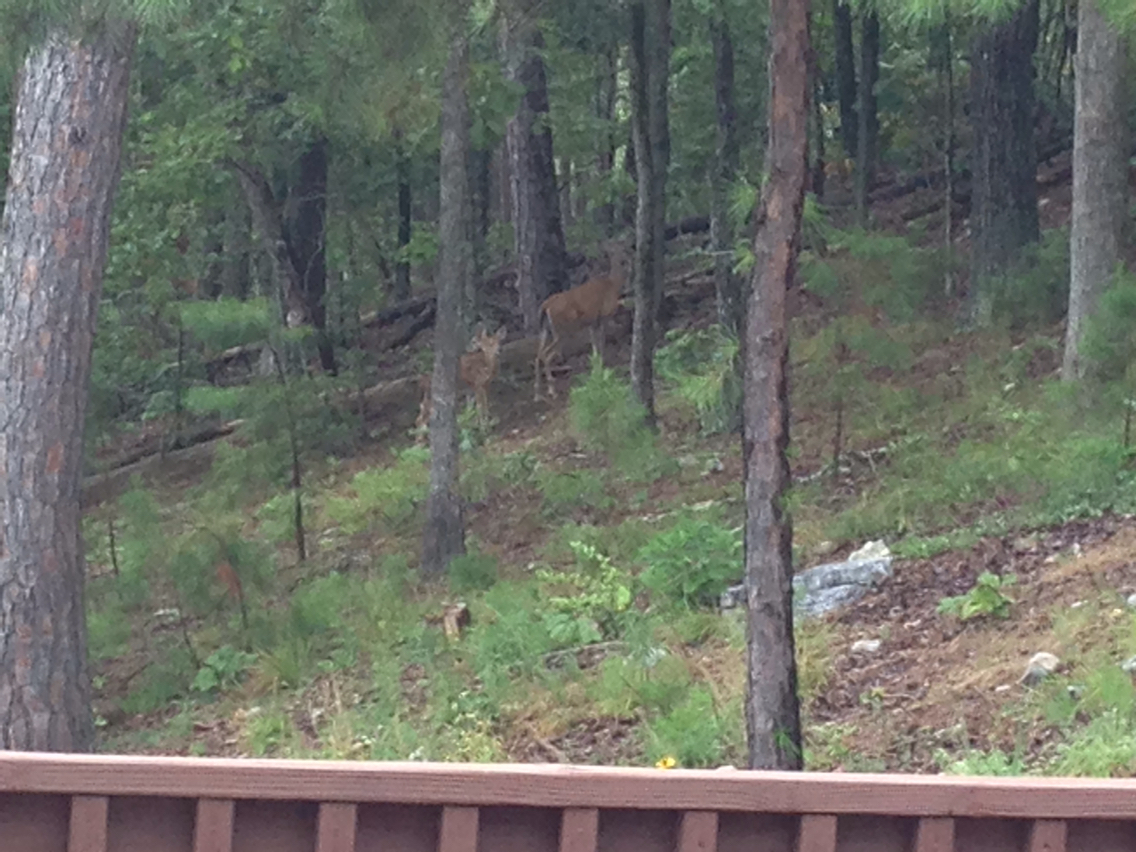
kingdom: Animalia
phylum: Chordata
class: Mammalia
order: Artiodactyla
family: Cervidae
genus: Odocoileus
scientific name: Odocoileus virginianus
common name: White-tailed deer
